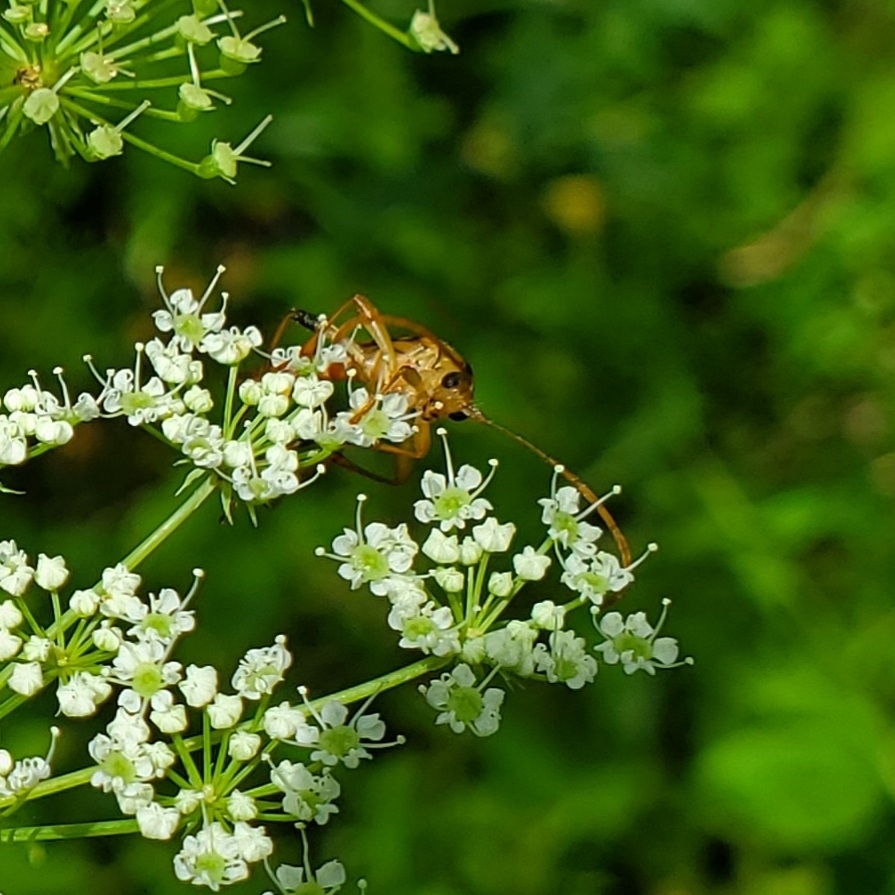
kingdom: Animalia
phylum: Arthropoda
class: Insecta
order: Coleoptera
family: Cerambycidae
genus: Strangalia
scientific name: Strangalia luteicornis
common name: Yellow-horned flower longhorn beetle
